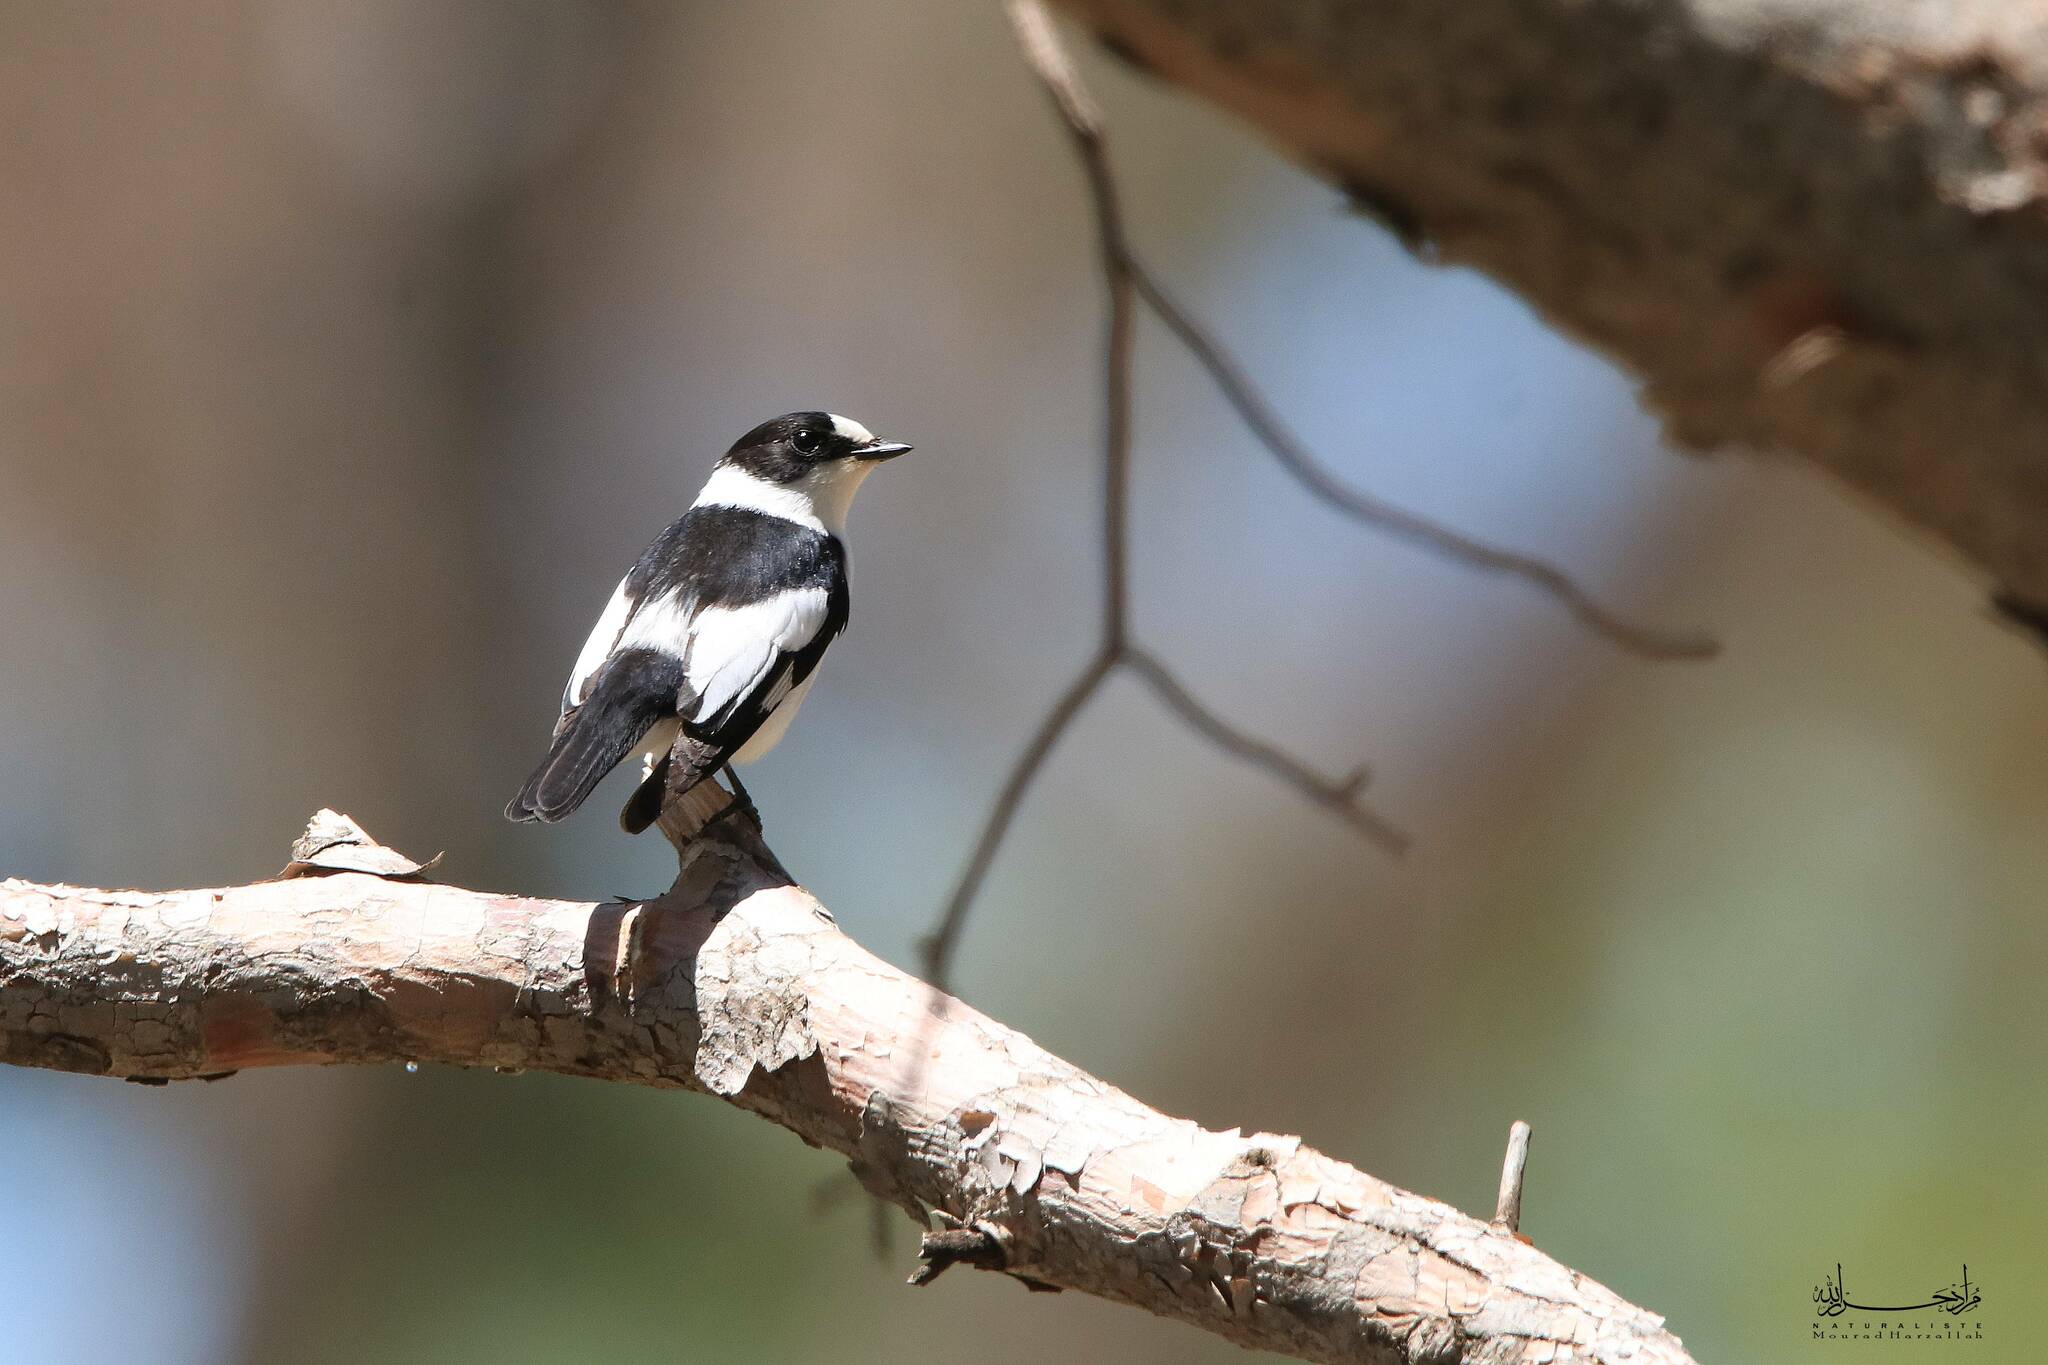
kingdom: Animalia
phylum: Chordata
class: Aves
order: Passeriformes
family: Muscicapidae
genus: Ficedula
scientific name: Ficedula albicollis
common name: Collared flycatcher
